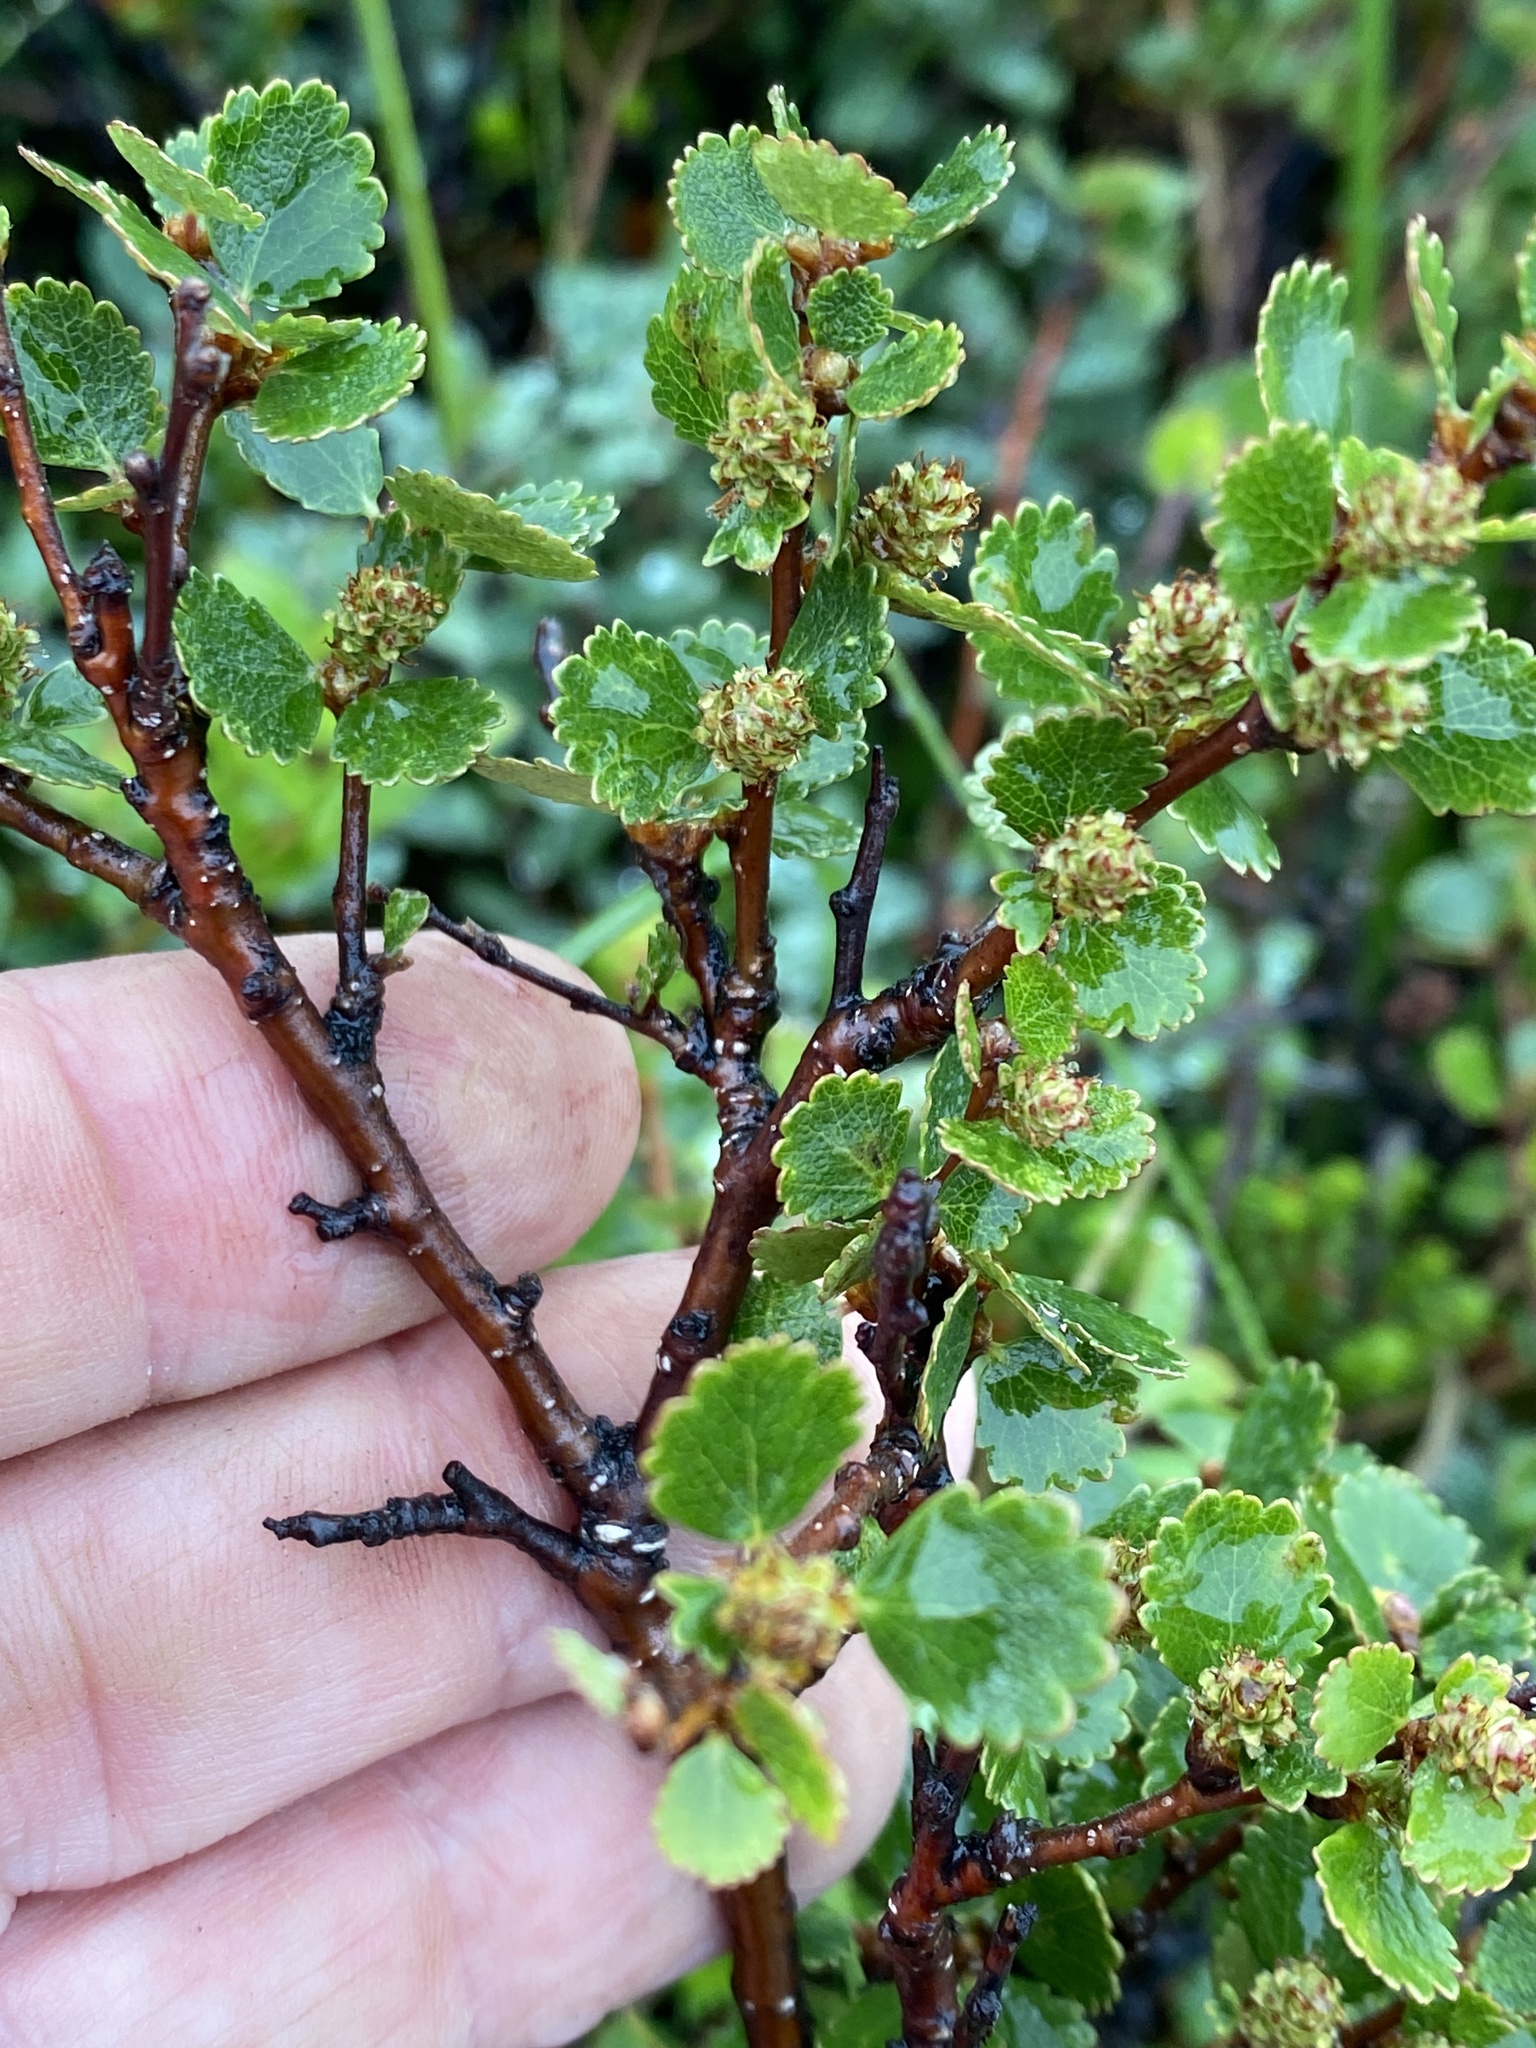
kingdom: Plantae
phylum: Tracheophyta
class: Magnoliopsida
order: Fagales
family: Betulaceae
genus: Betula
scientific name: Betula nana
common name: Arctic dwarf birch
